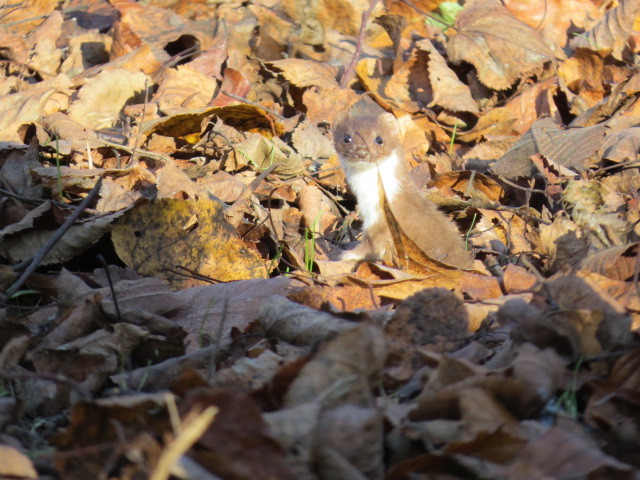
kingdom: Animalia
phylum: Chordata
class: Mammalia
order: Carnivora
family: Mustelidae
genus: Mustela
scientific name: Mustela nivalis
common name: Least weasel
